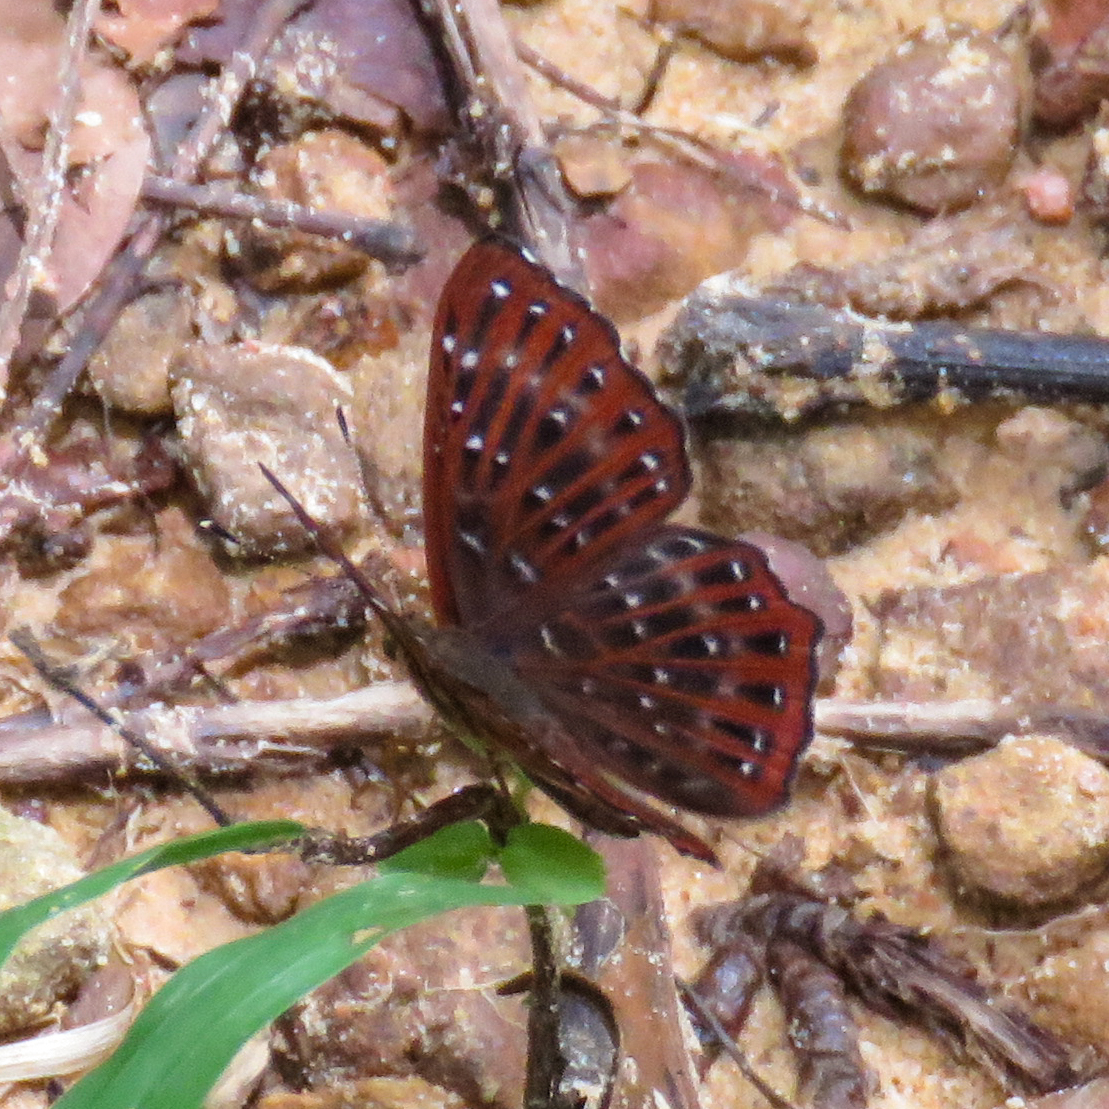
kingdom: Animalia
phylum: Arthropoda
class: Insecta
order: Lepidoptera
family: Riodinidae
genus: Zemeros
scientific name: Zemeros flegyas
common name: Punchinello
